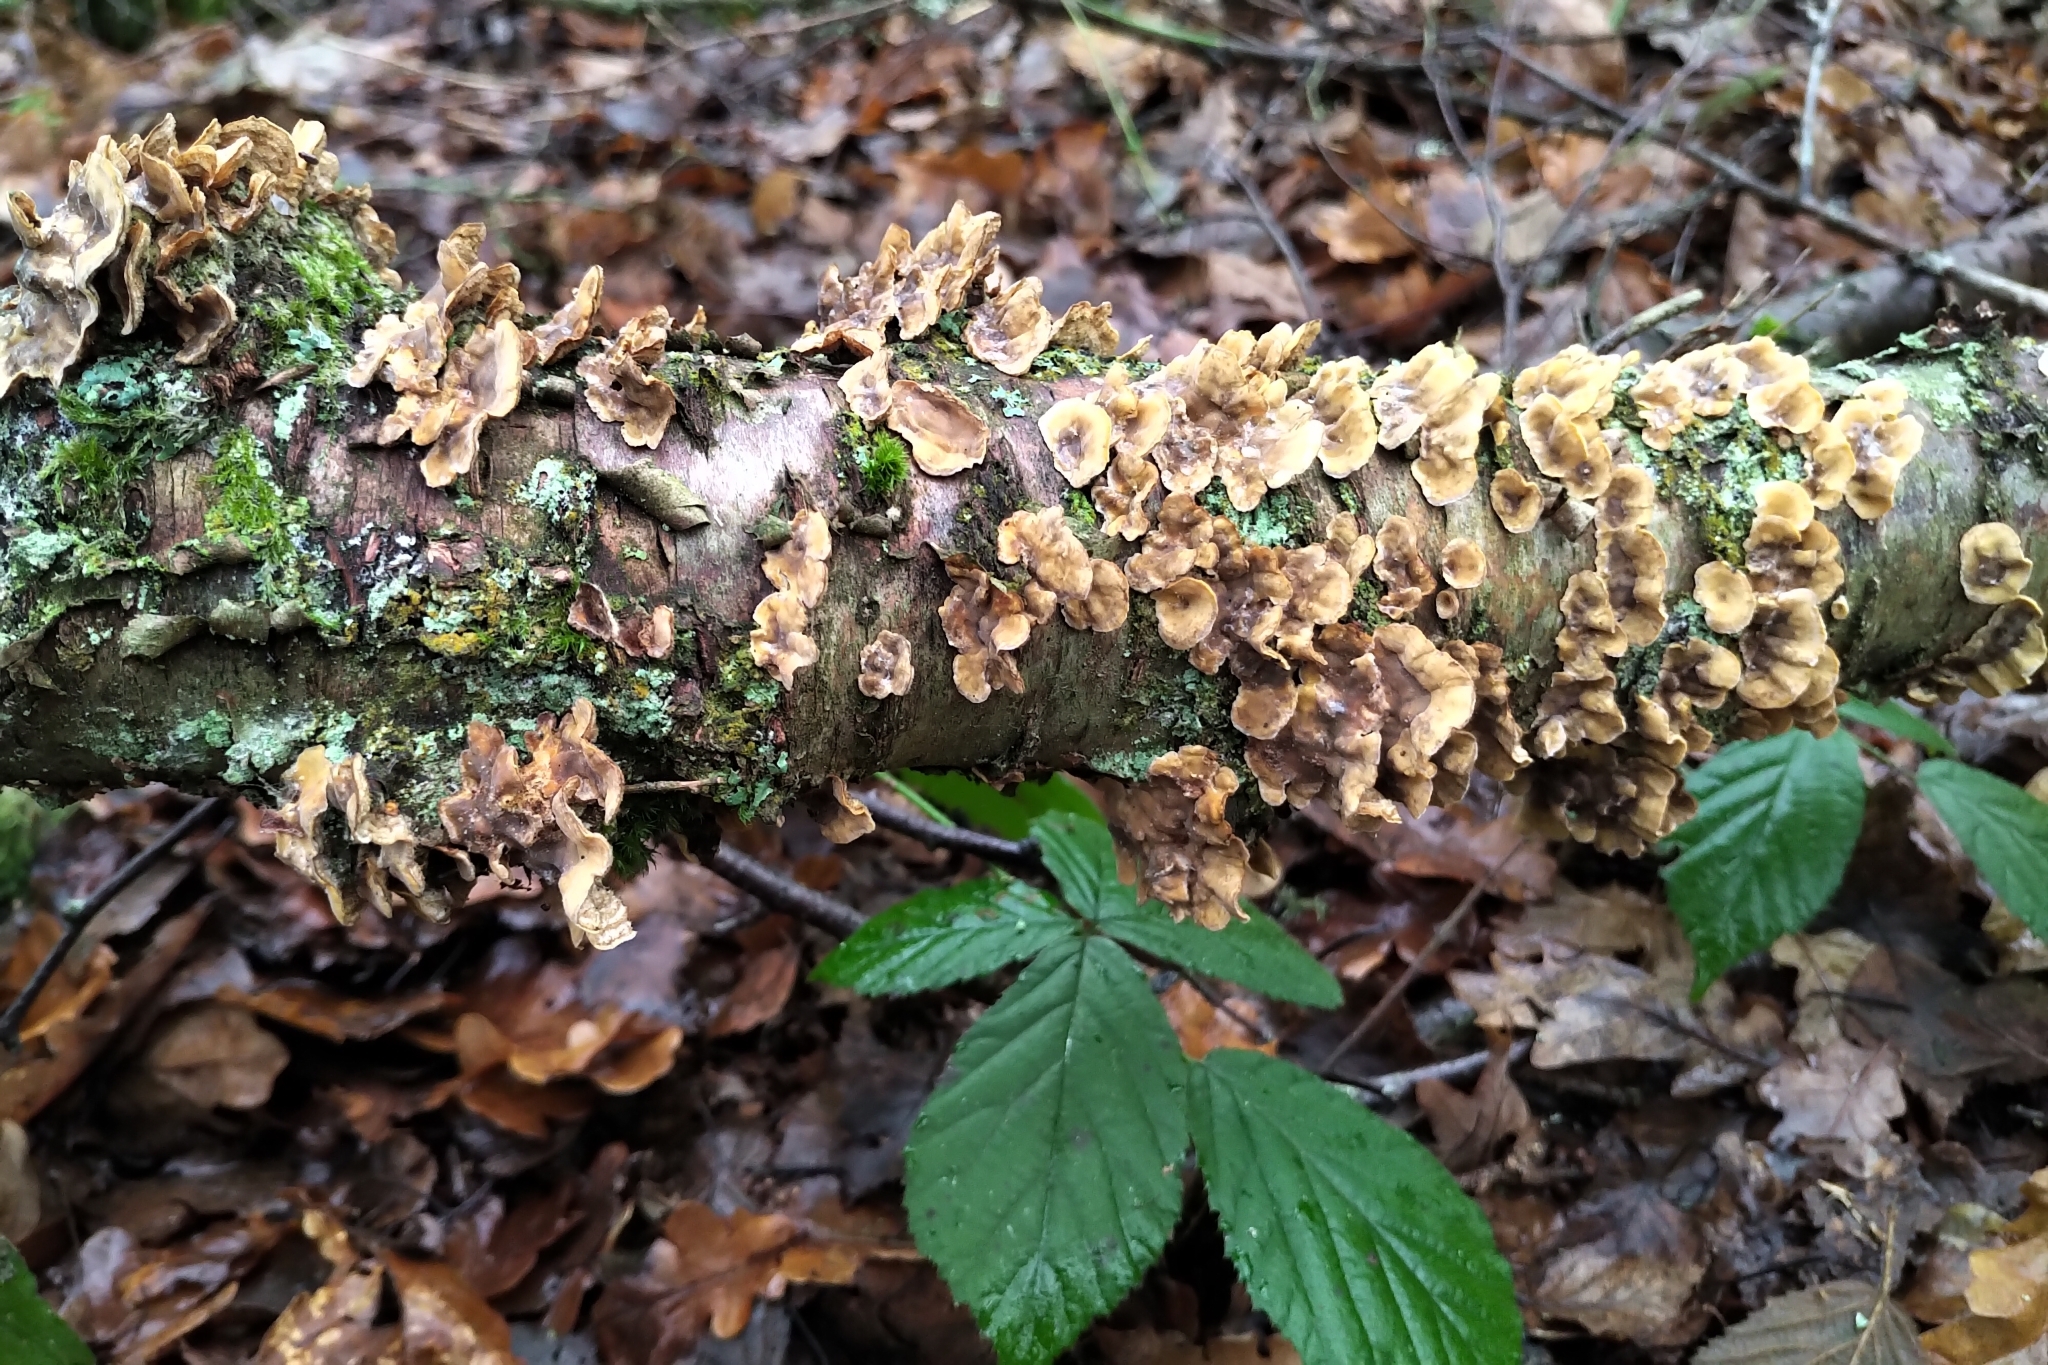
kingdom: Fungi
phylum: Basidiomycota
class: Agaricomycetes
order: Russulales
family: Stereaceae
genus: Stereum
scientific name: Stereum hirsutum
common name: Hairy curtain crust
